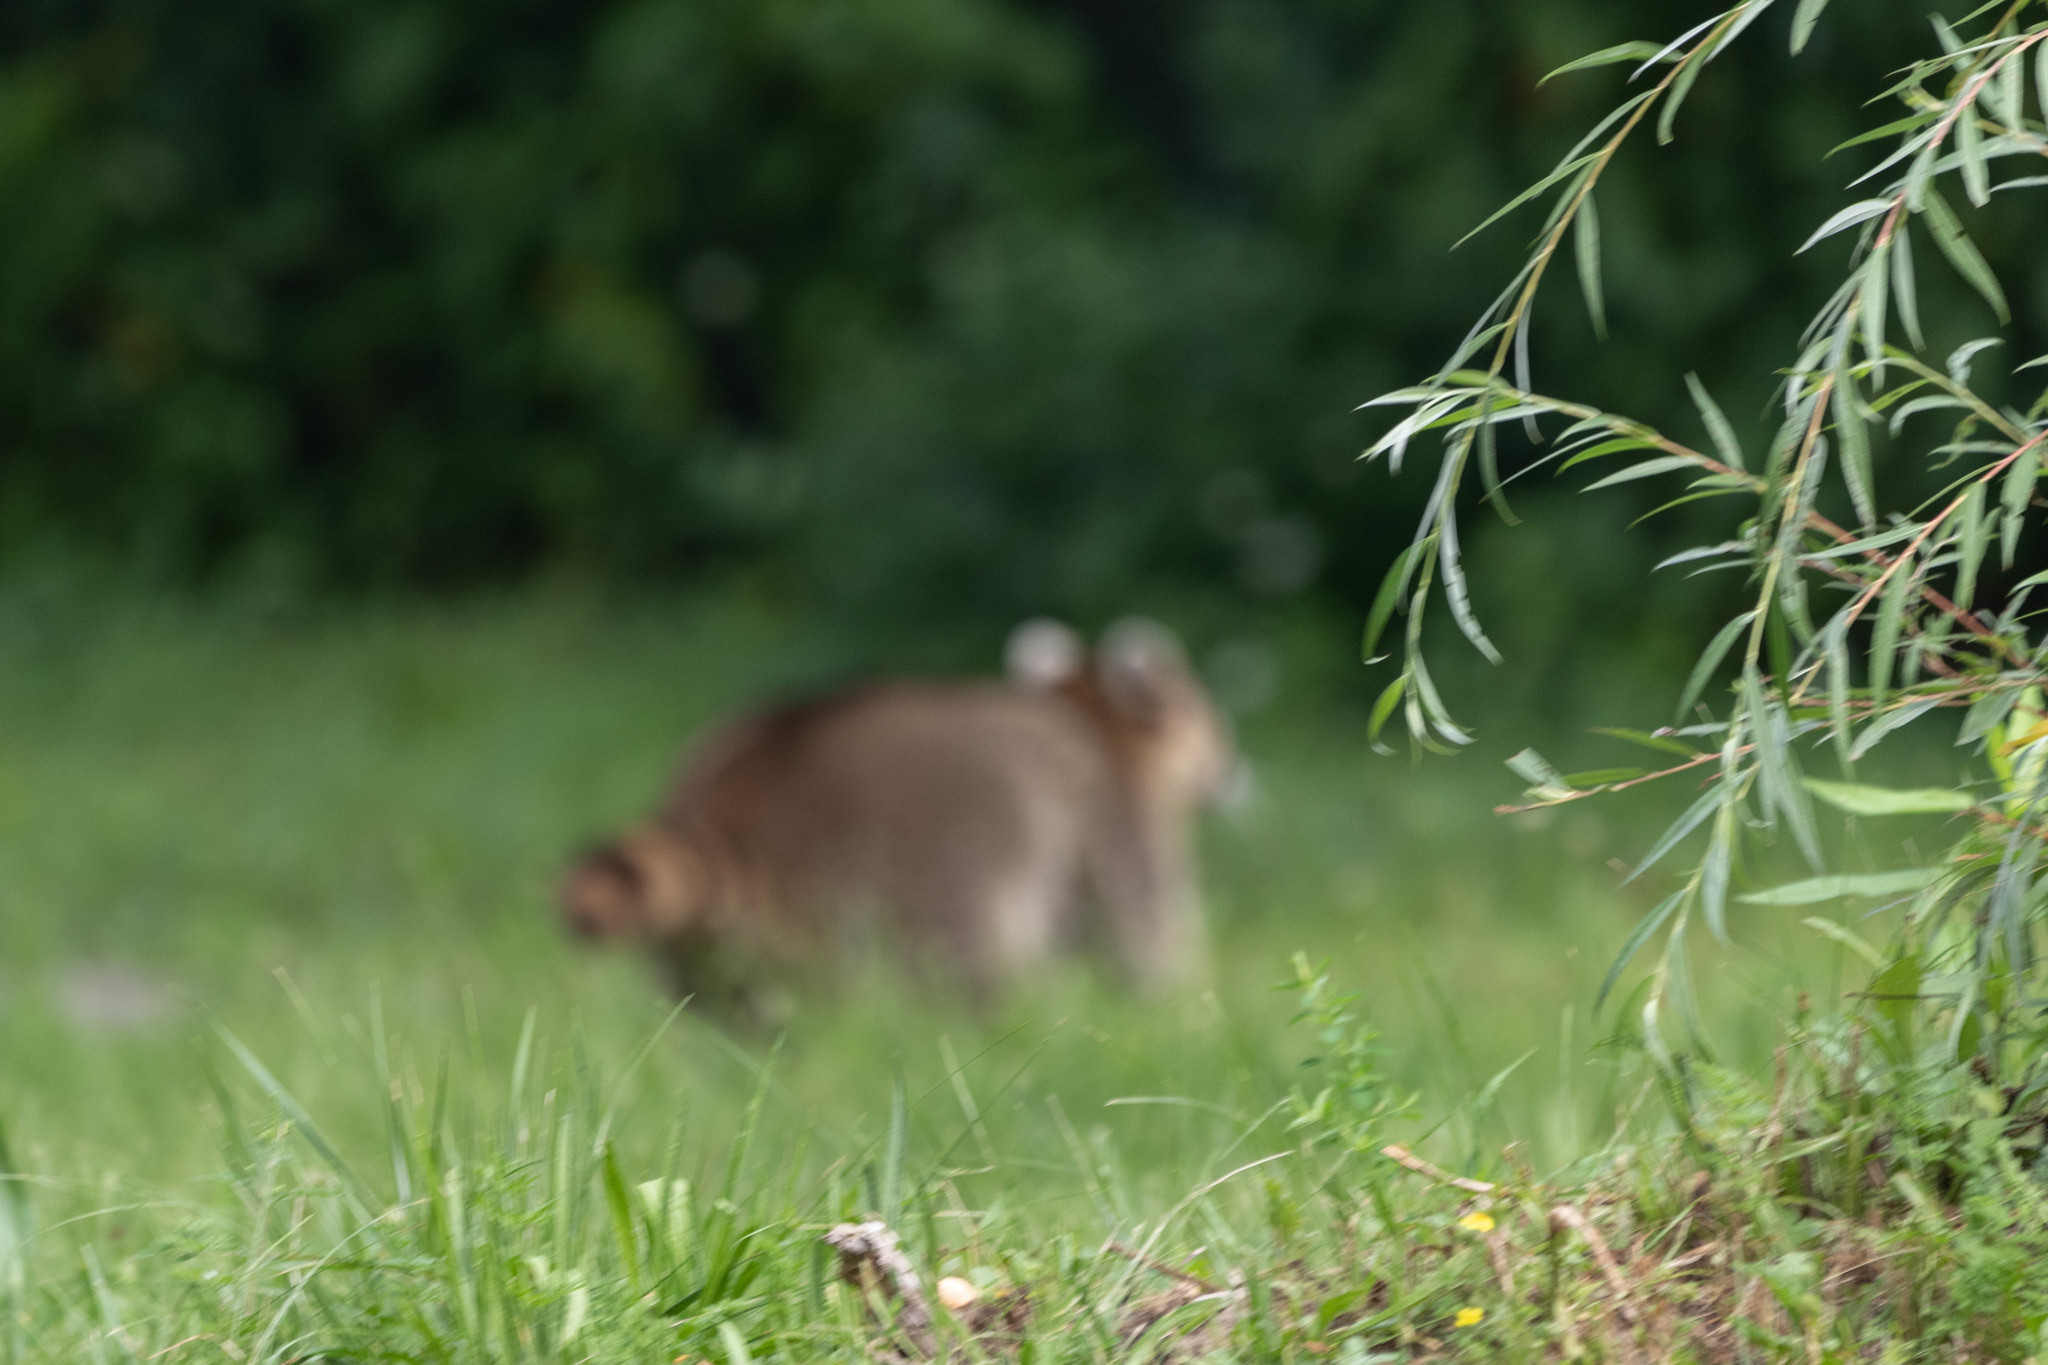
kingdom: Animalia
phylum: Chordata
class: Mammalia
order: Carnivora
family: Procyonidae
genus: Procyon
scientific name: Procyon lotor
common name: Raccoon
